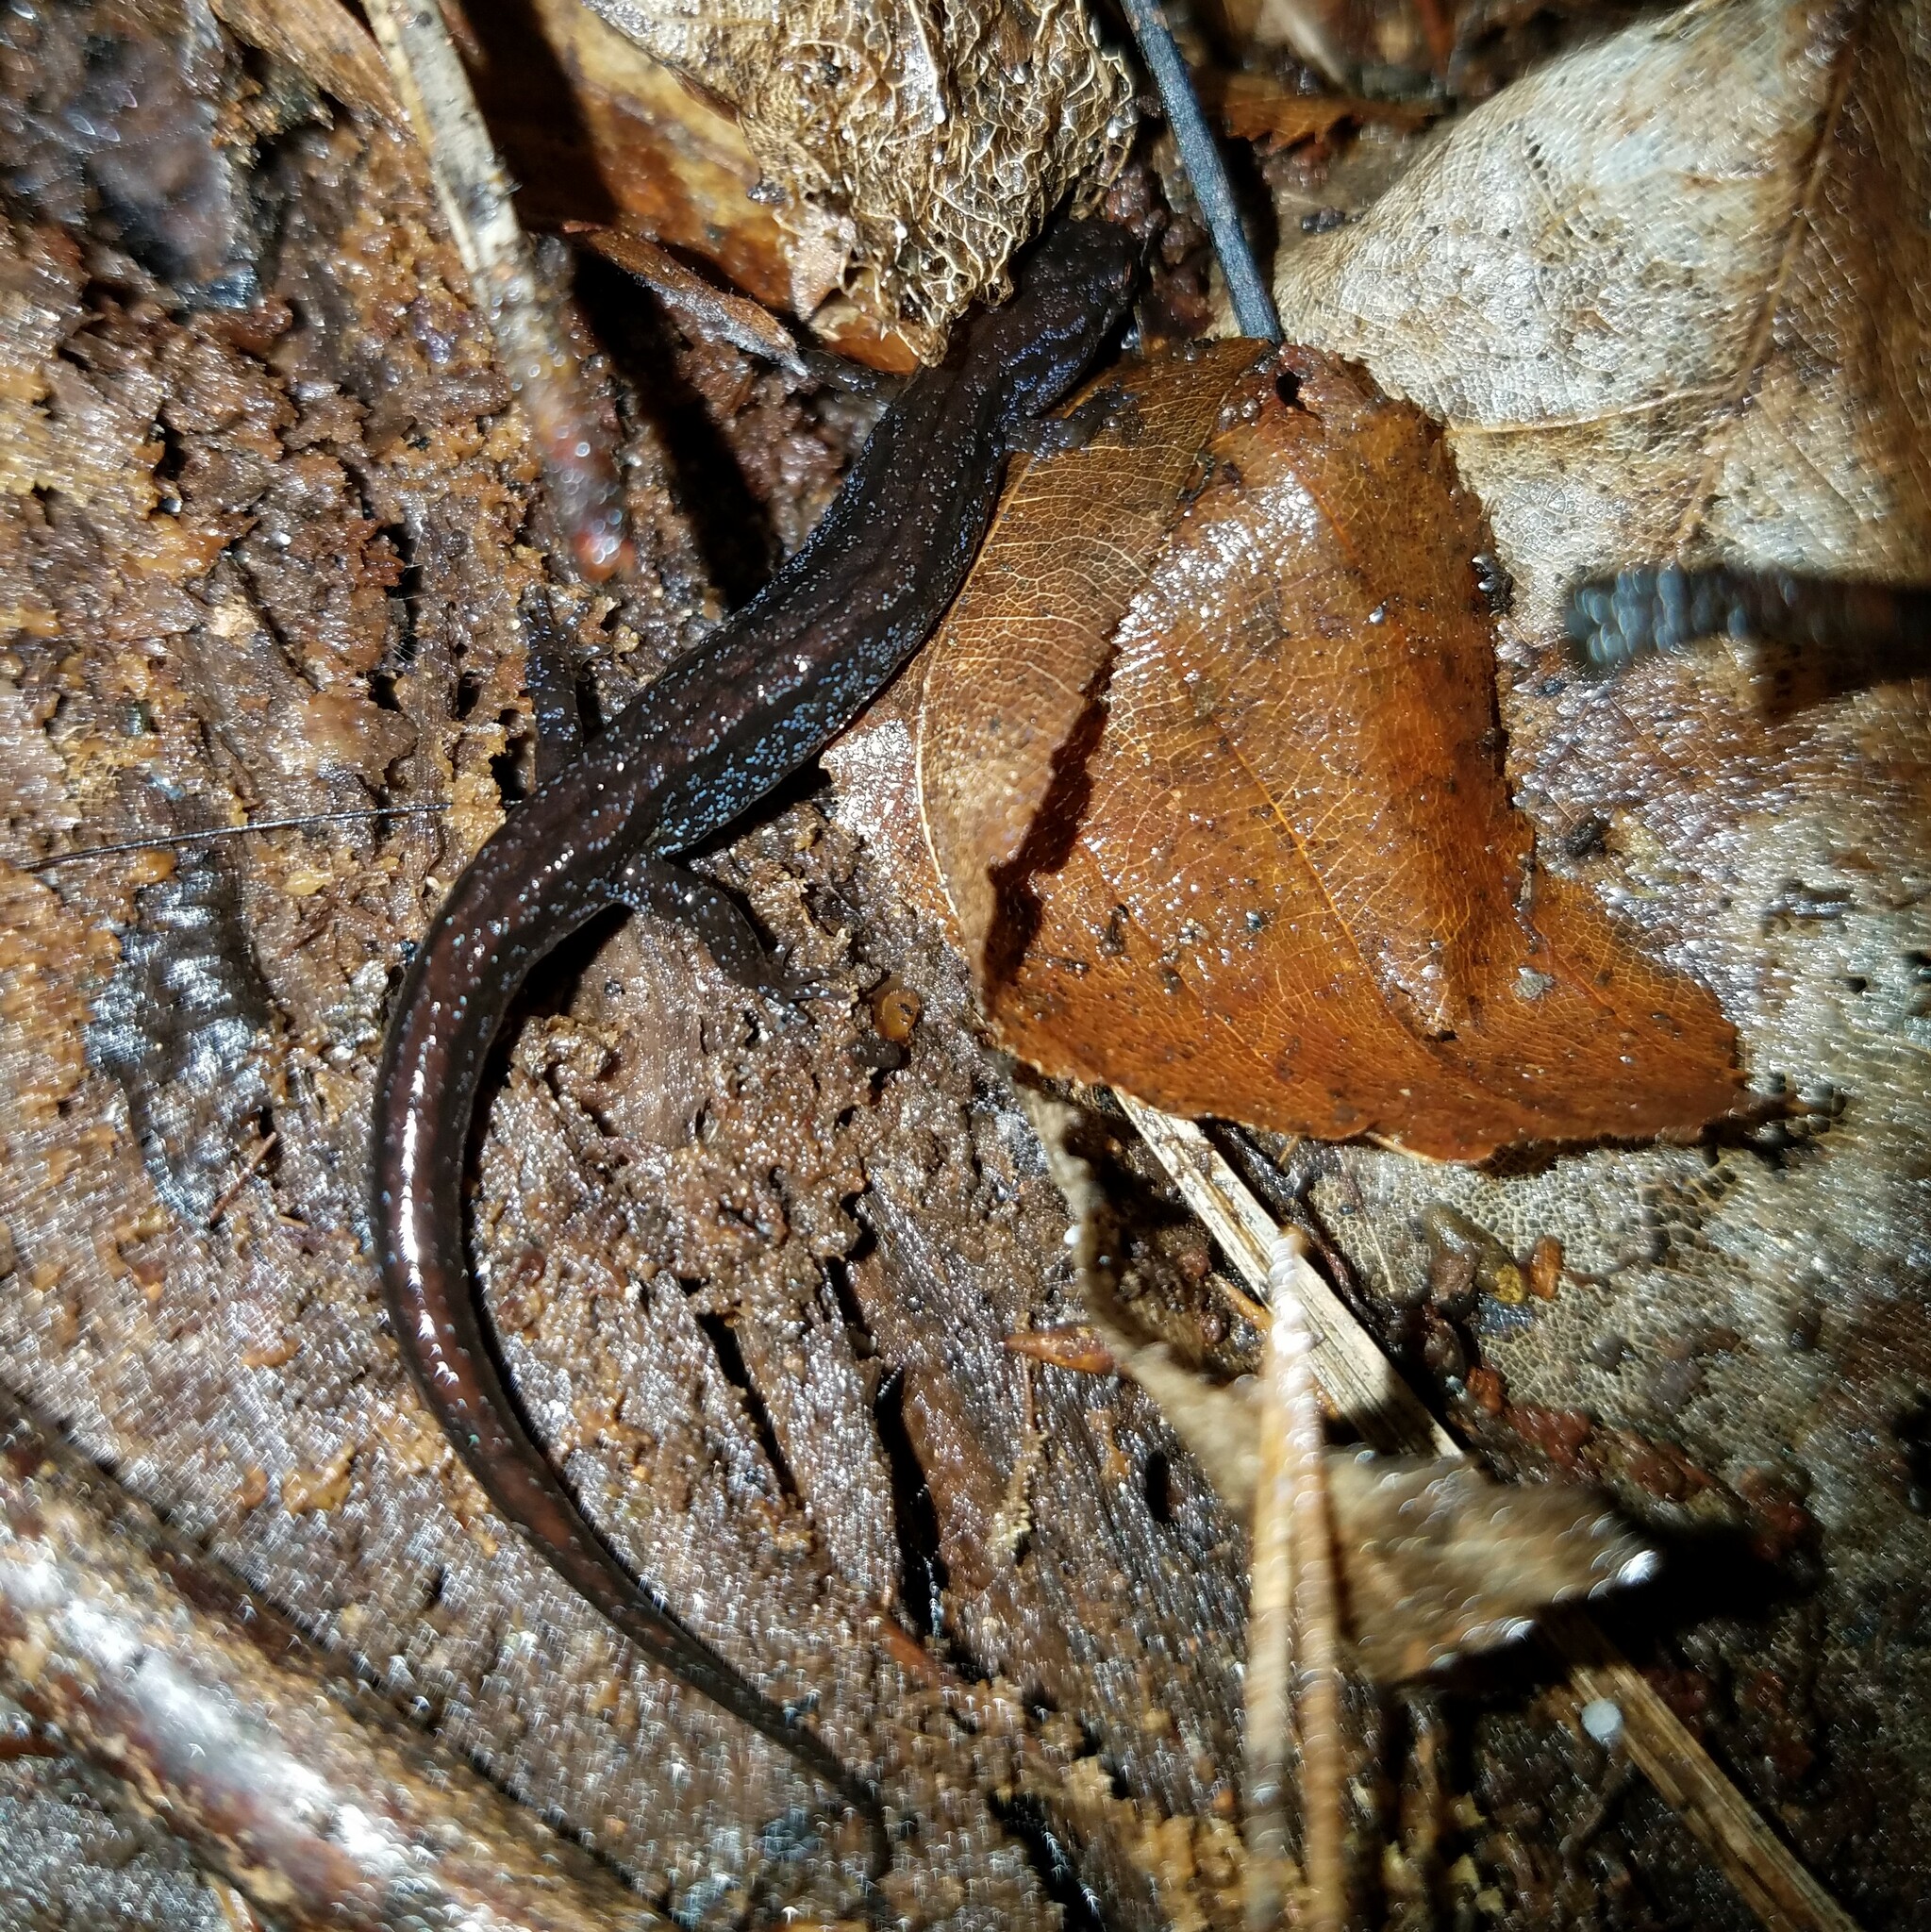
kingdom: Animalia
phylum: Chordata
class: Amphibia
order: Caudata
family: Plethodontidae
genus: Desmognathus
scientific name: Desmognathus aeneus
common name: Seepage salamander
